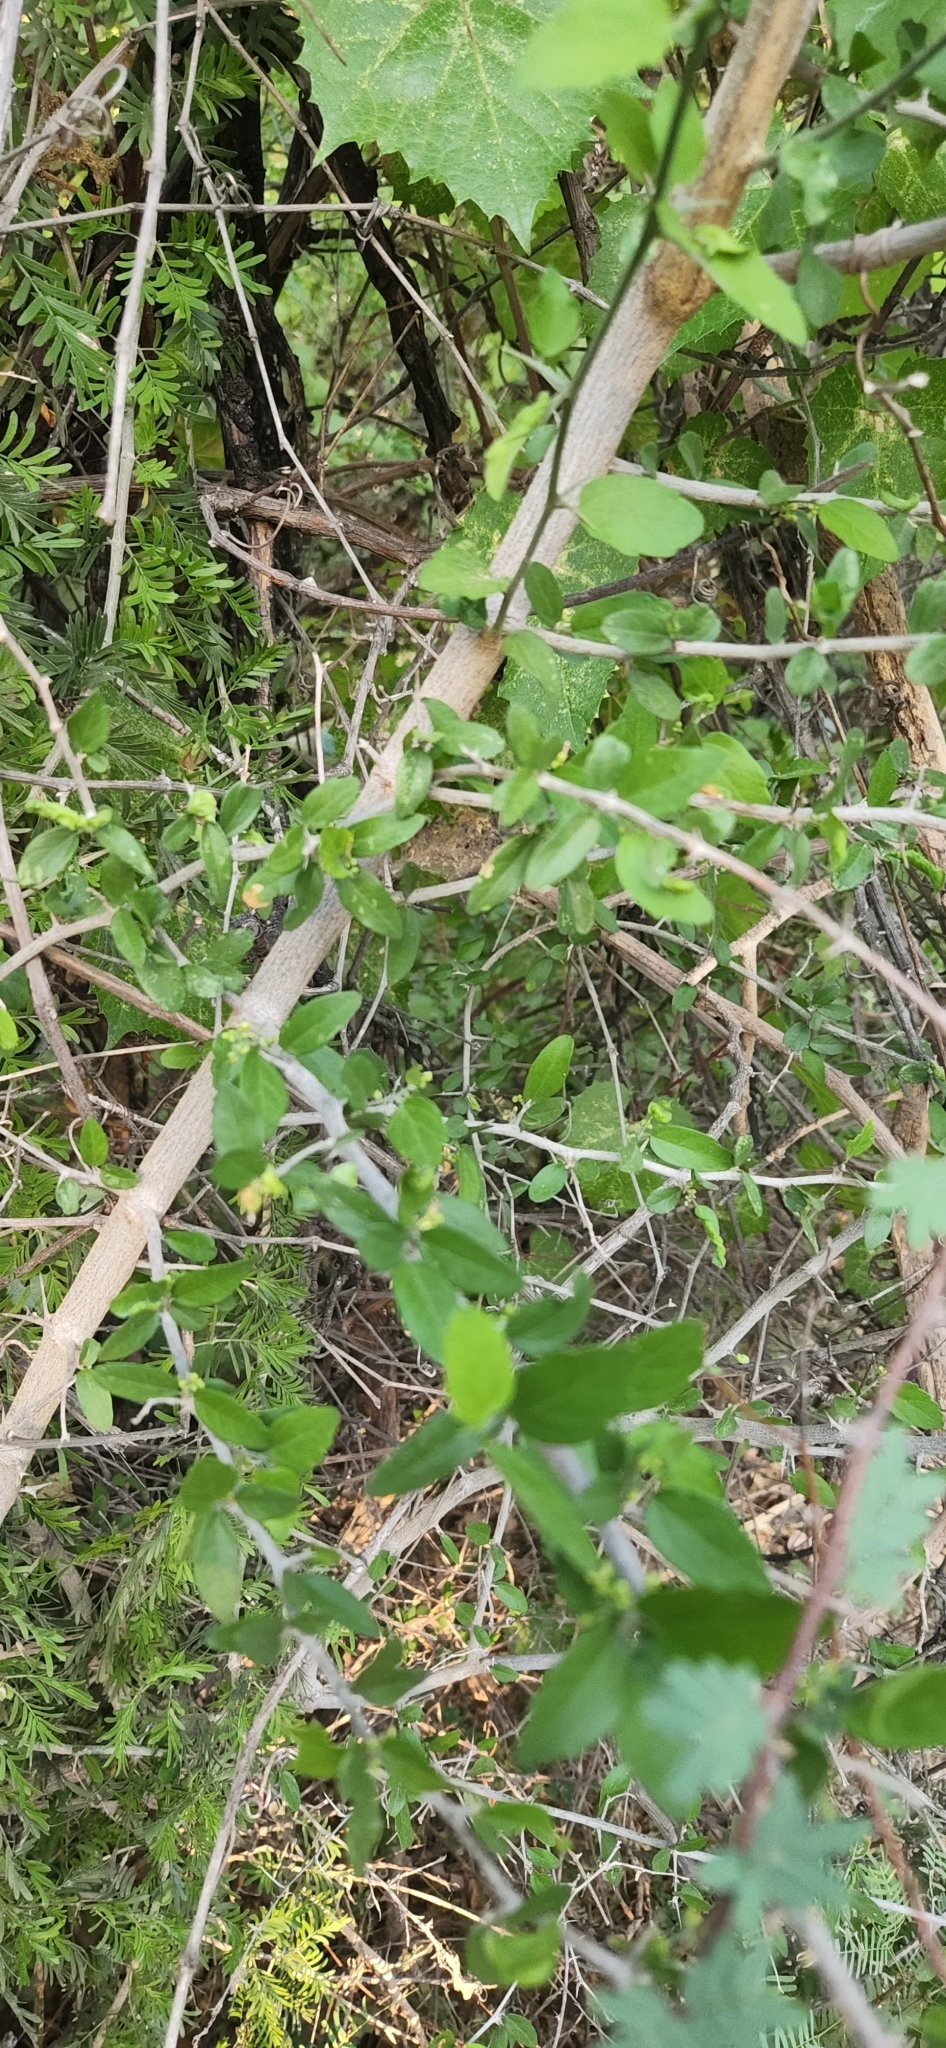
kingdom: Plantae
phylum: Tracheophyta
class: Magnoliopsida
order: Rosales
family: Cannabaceae
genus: Celtis
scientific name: Celtis pallida
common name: Desert hackberry
